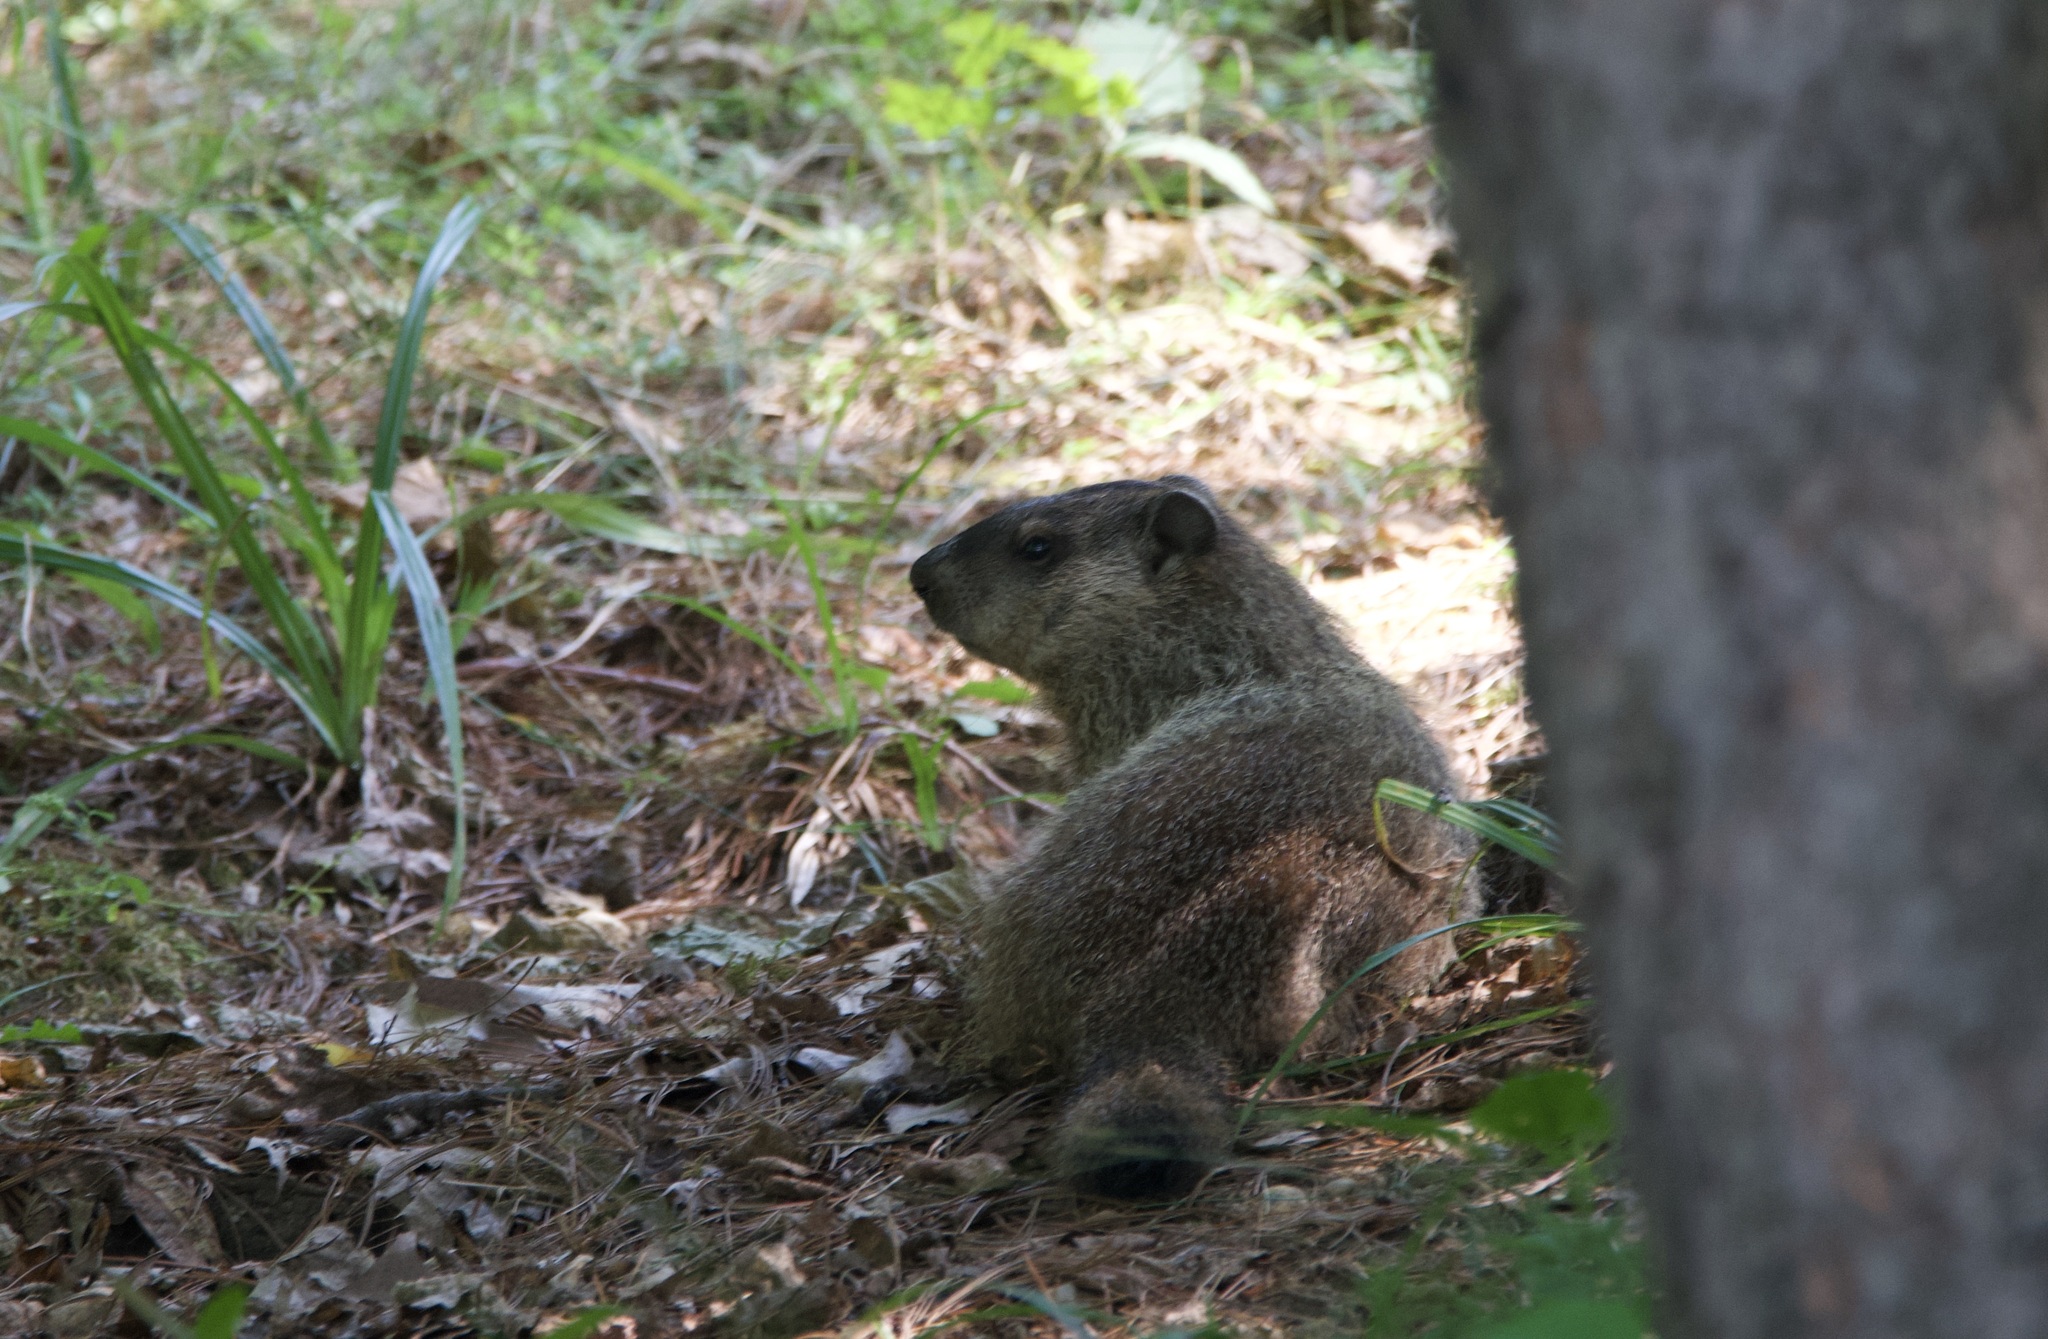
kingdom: Animalia
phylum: Chordata
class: Mammalia
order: Rodentia
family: Sciuridae
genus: Marmota
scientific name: Marmota monax
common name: Groundhog
